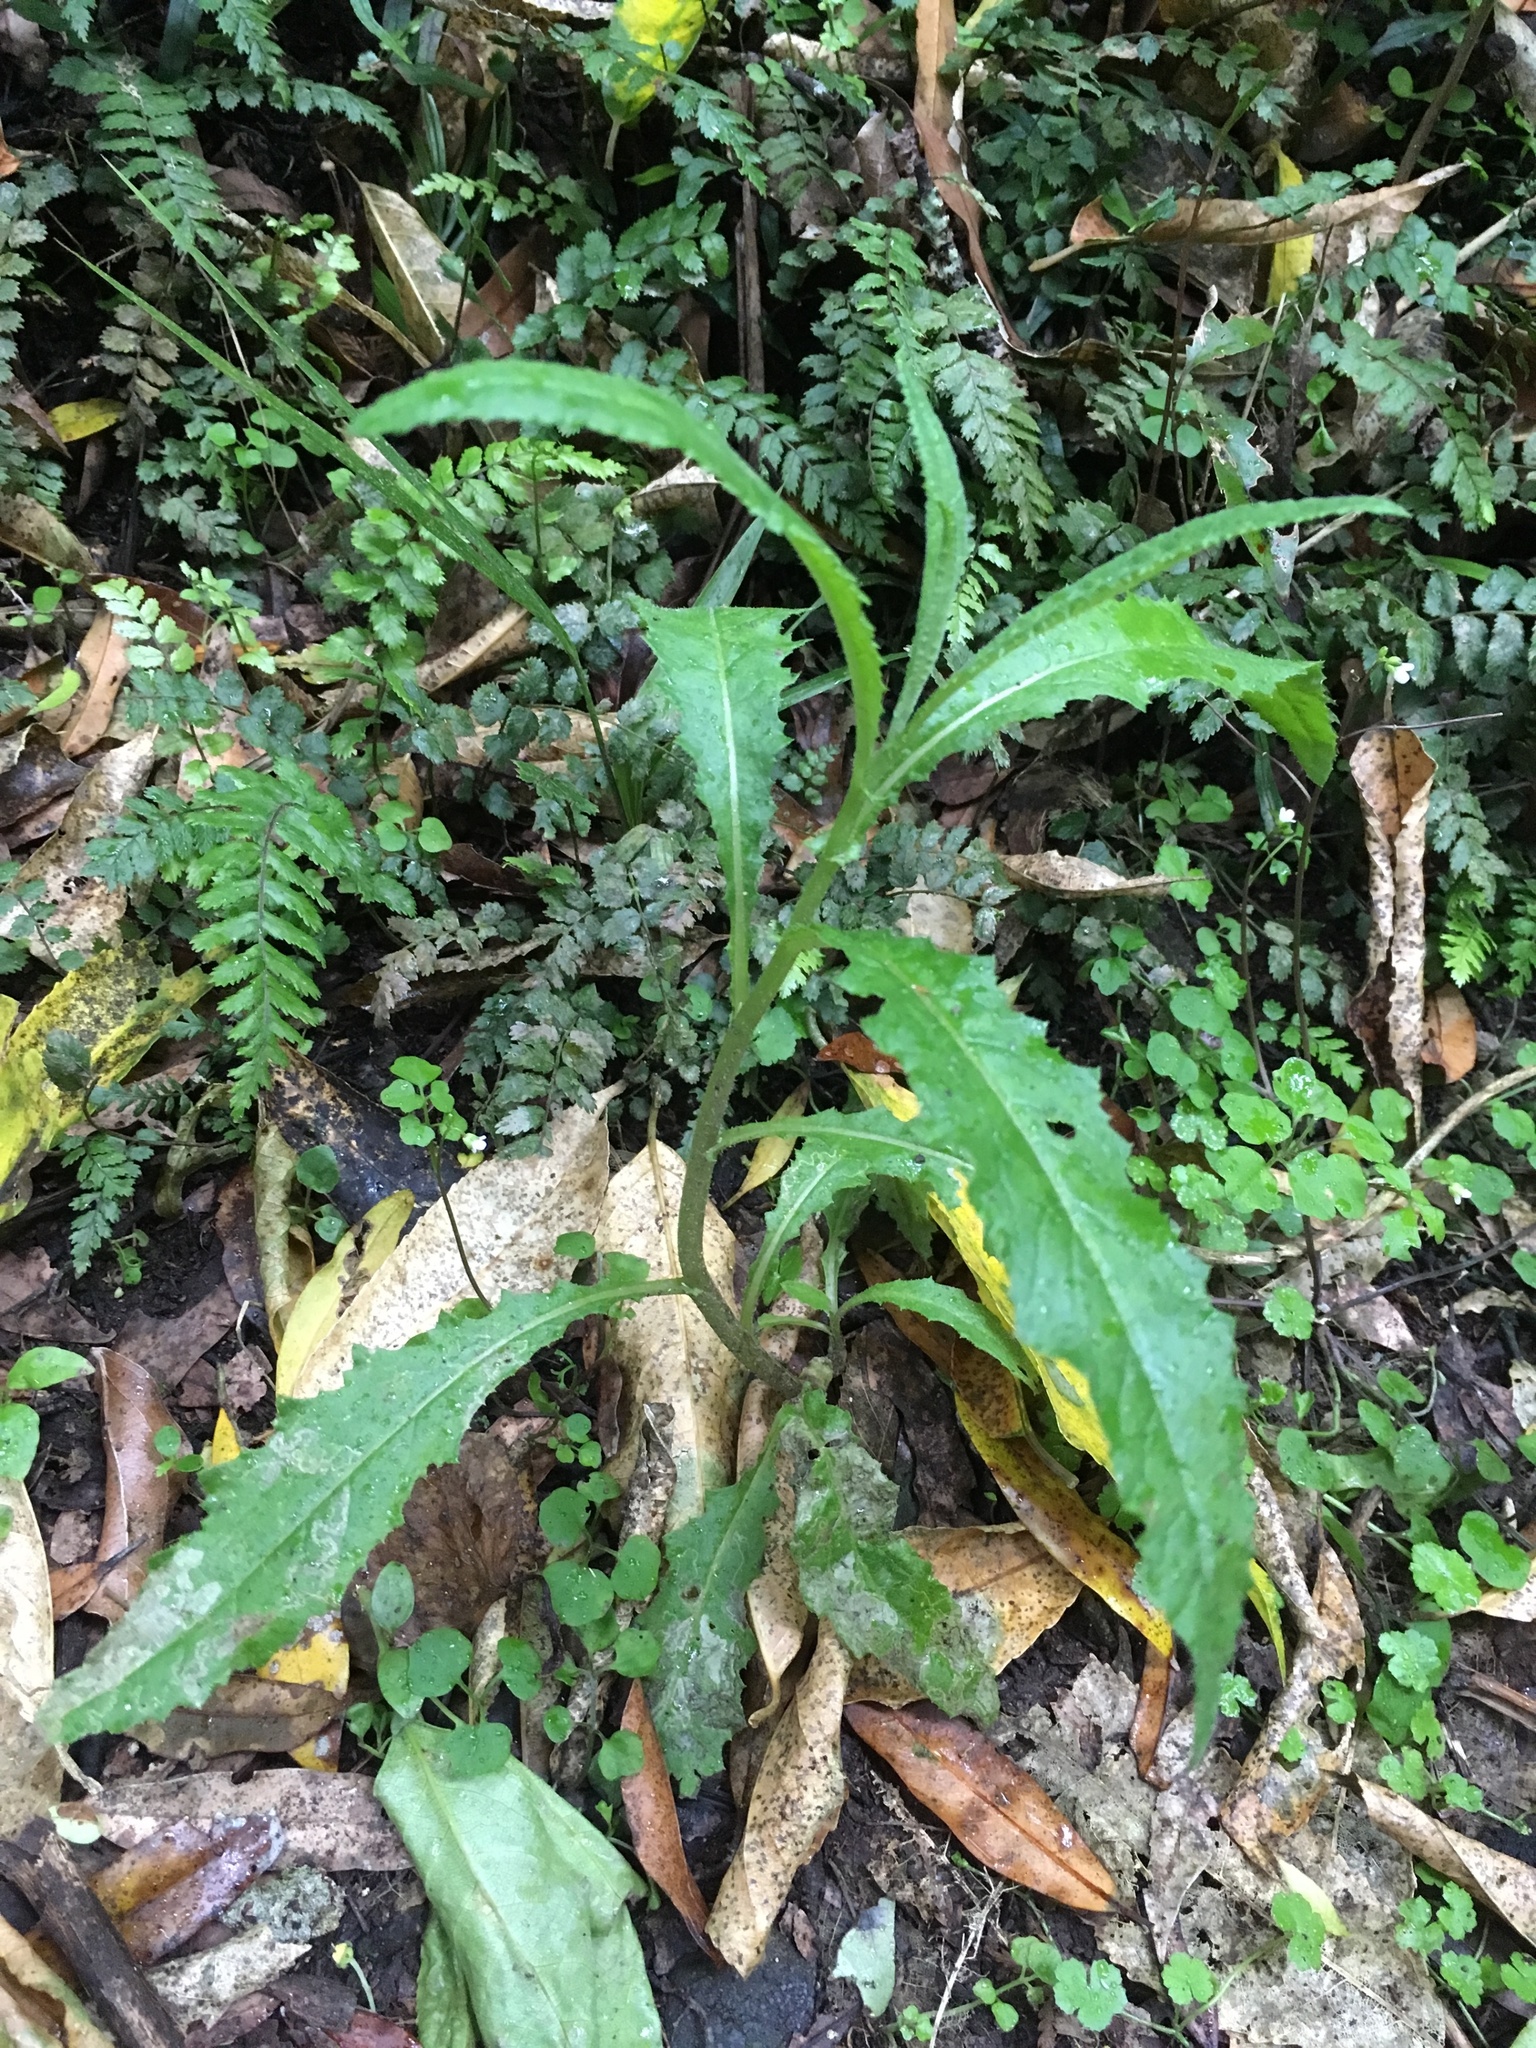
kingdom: Plantae
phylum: Tracheophyta
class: Magnoliopsida
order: Asterales
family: Asteraceae
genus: Senecio
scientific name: Senecio minimus
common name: Toothed fireweed
